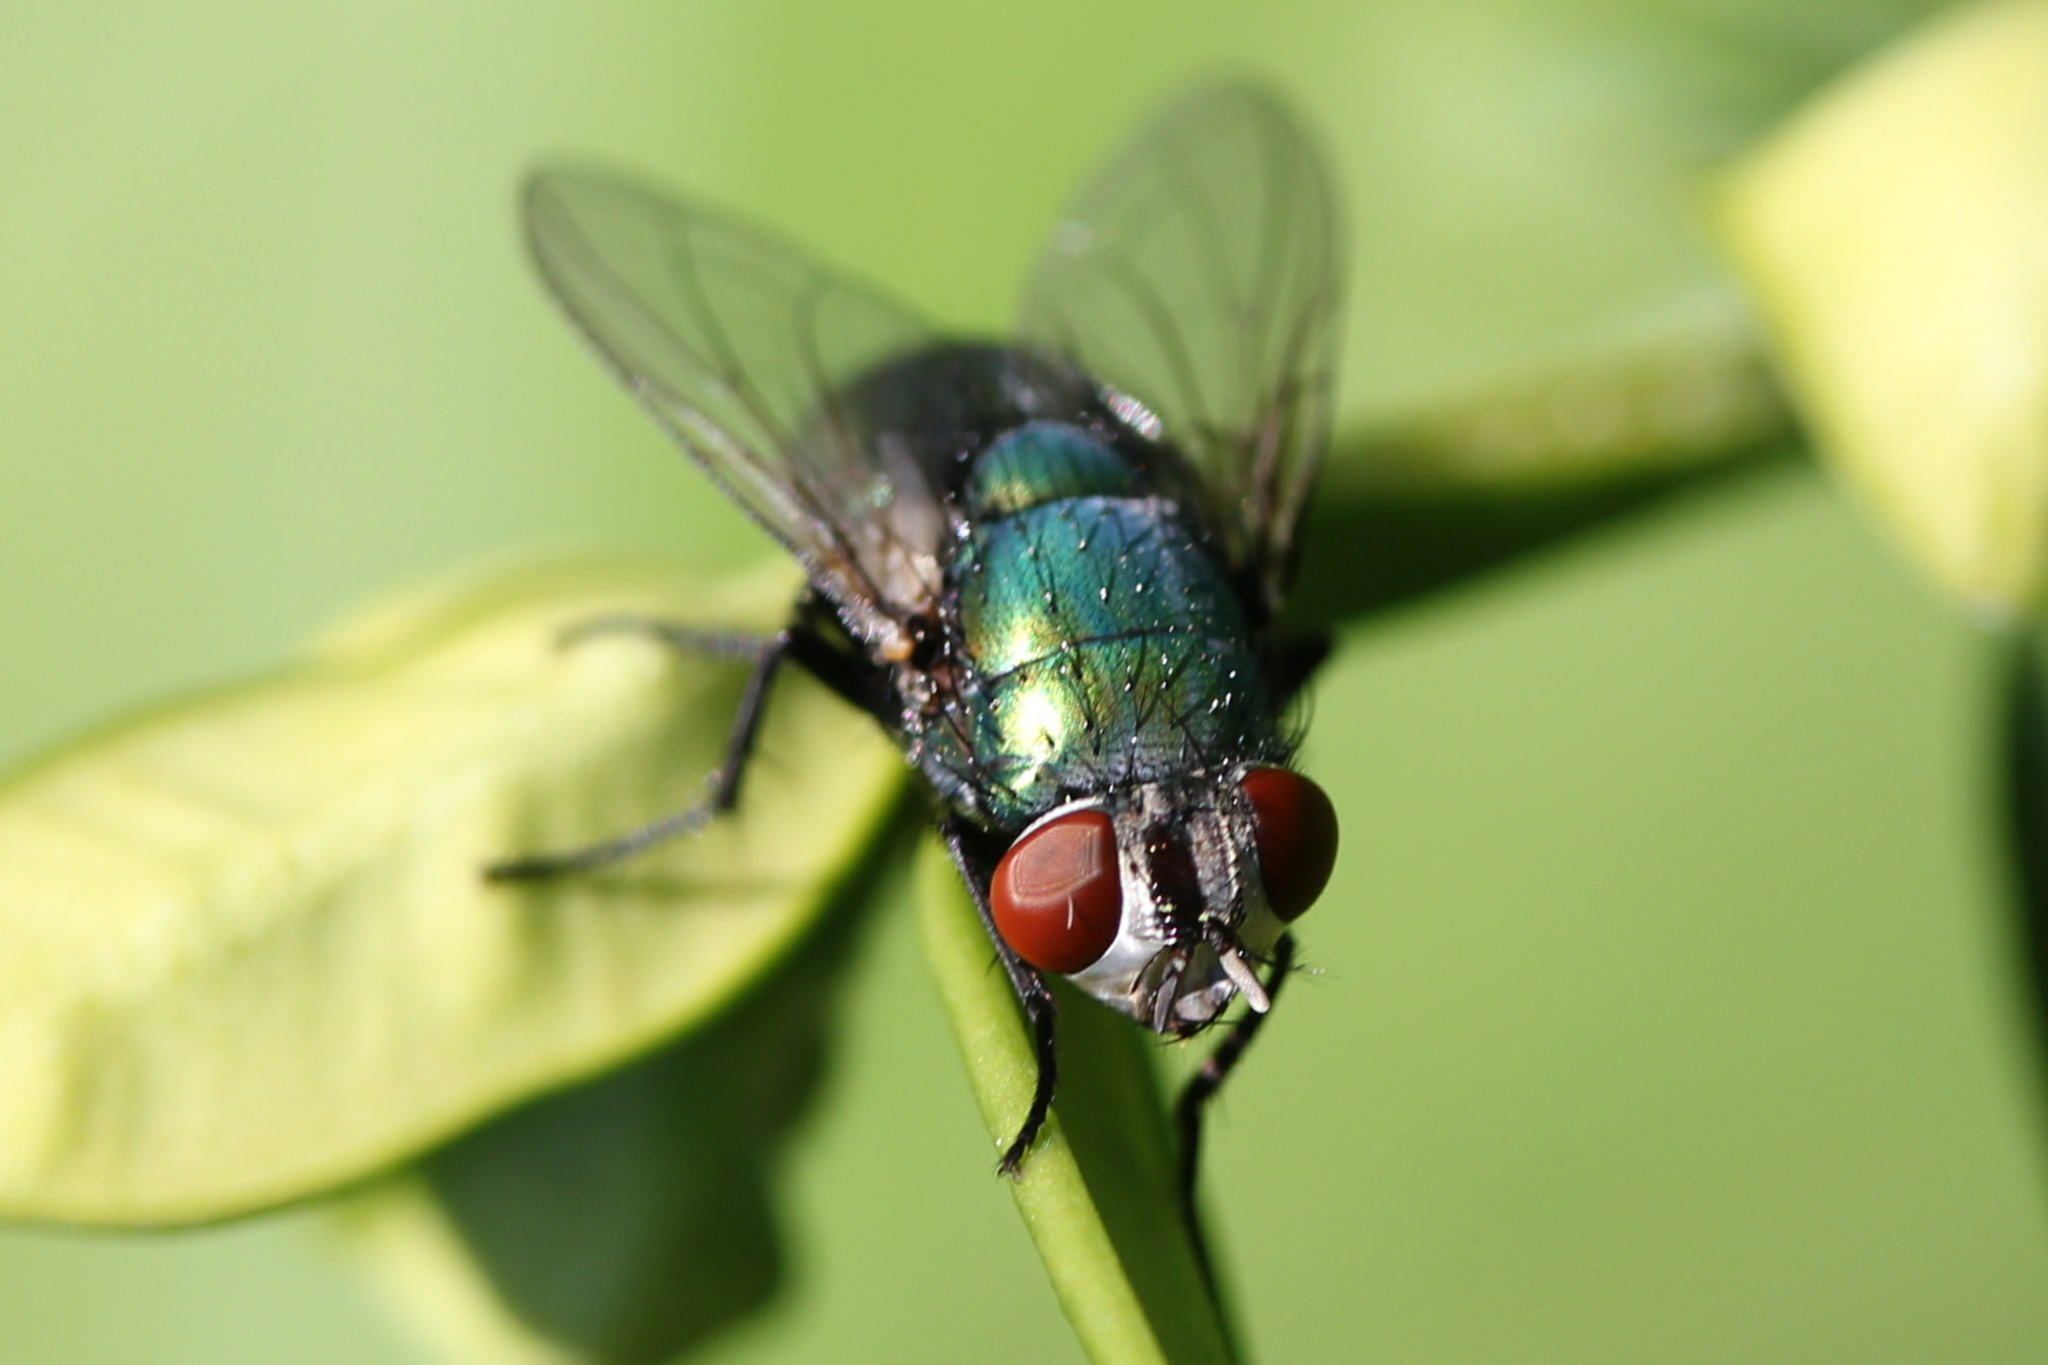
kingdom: Animalia
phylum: Arthropoda
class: Insecta
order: Diptera
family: Calliphoridae
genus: Lucilia
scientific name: Lucilia sericata
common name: Blow fly
